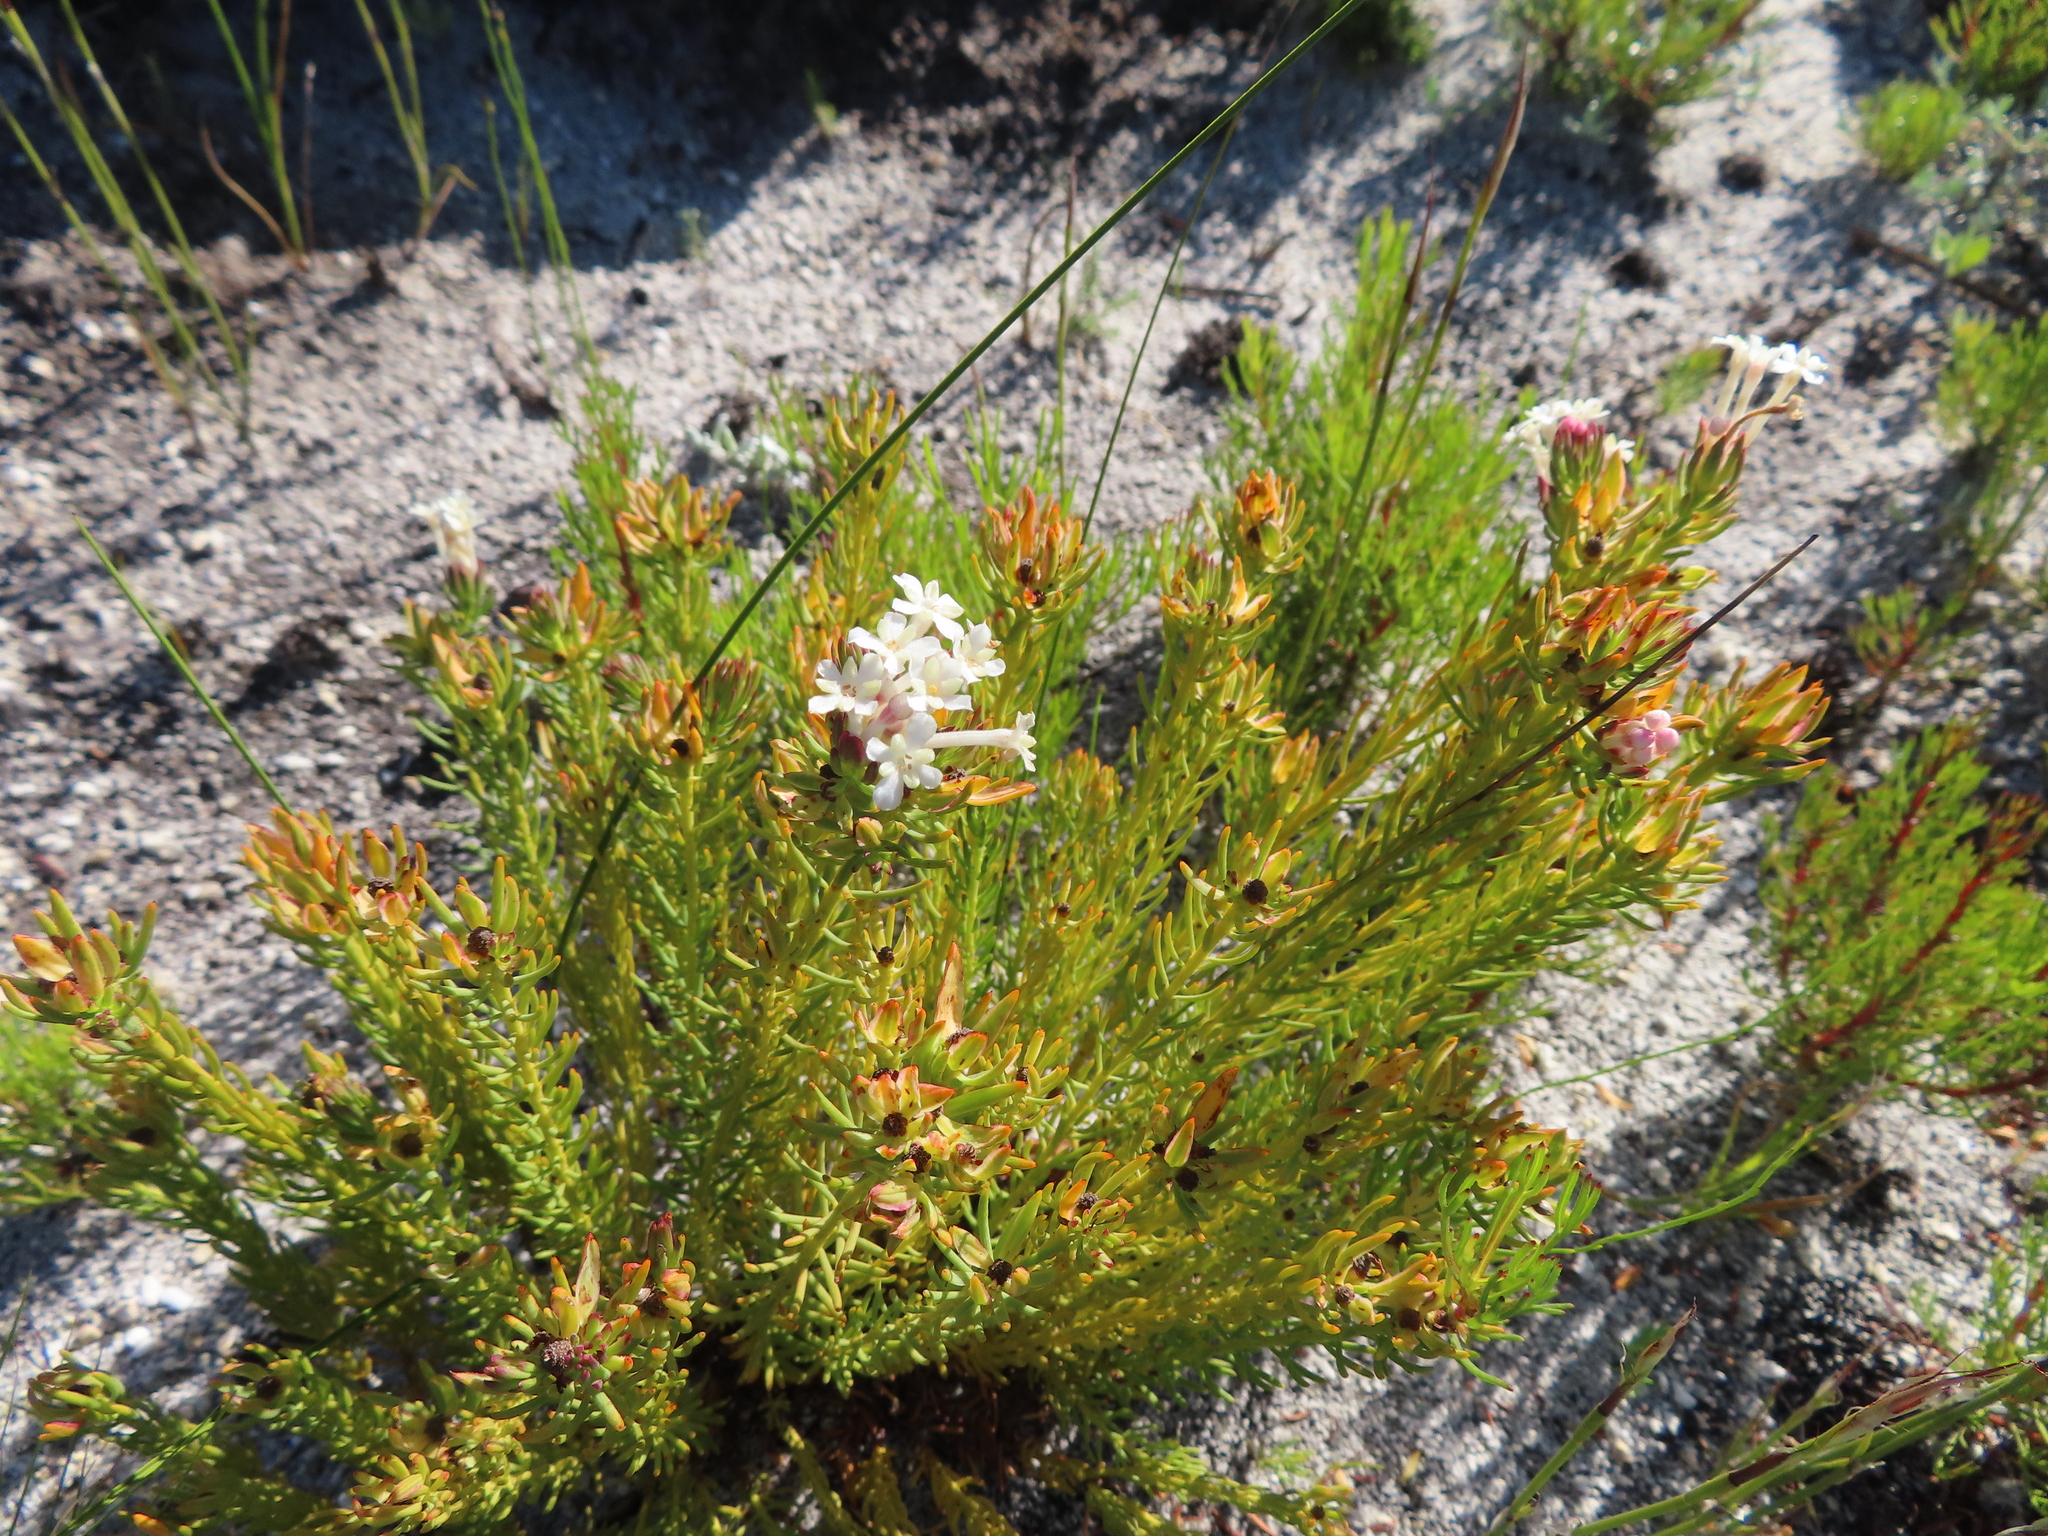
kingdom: Plantae
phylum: Tracheophyta
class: Magnoliopsida
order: Malvales
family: Thymelaeaceae
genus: Gnidia
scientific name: Gnidia pinifolia
